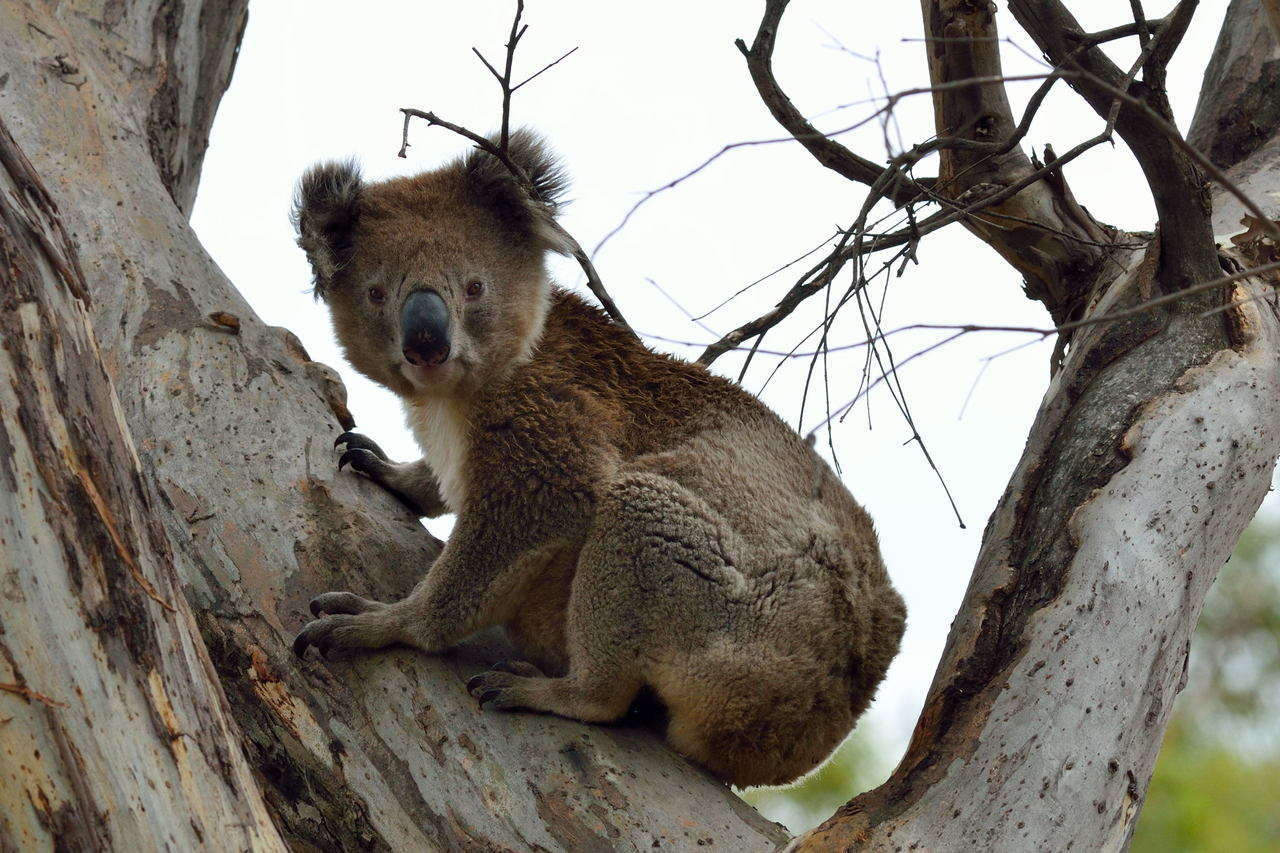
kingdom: Animalia
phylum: Chordata
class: Mammalia
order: Diprotodontia
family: Phascolarctidae
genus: Phascolarctos
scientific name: Phascolarctos cinereus
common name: Koala
